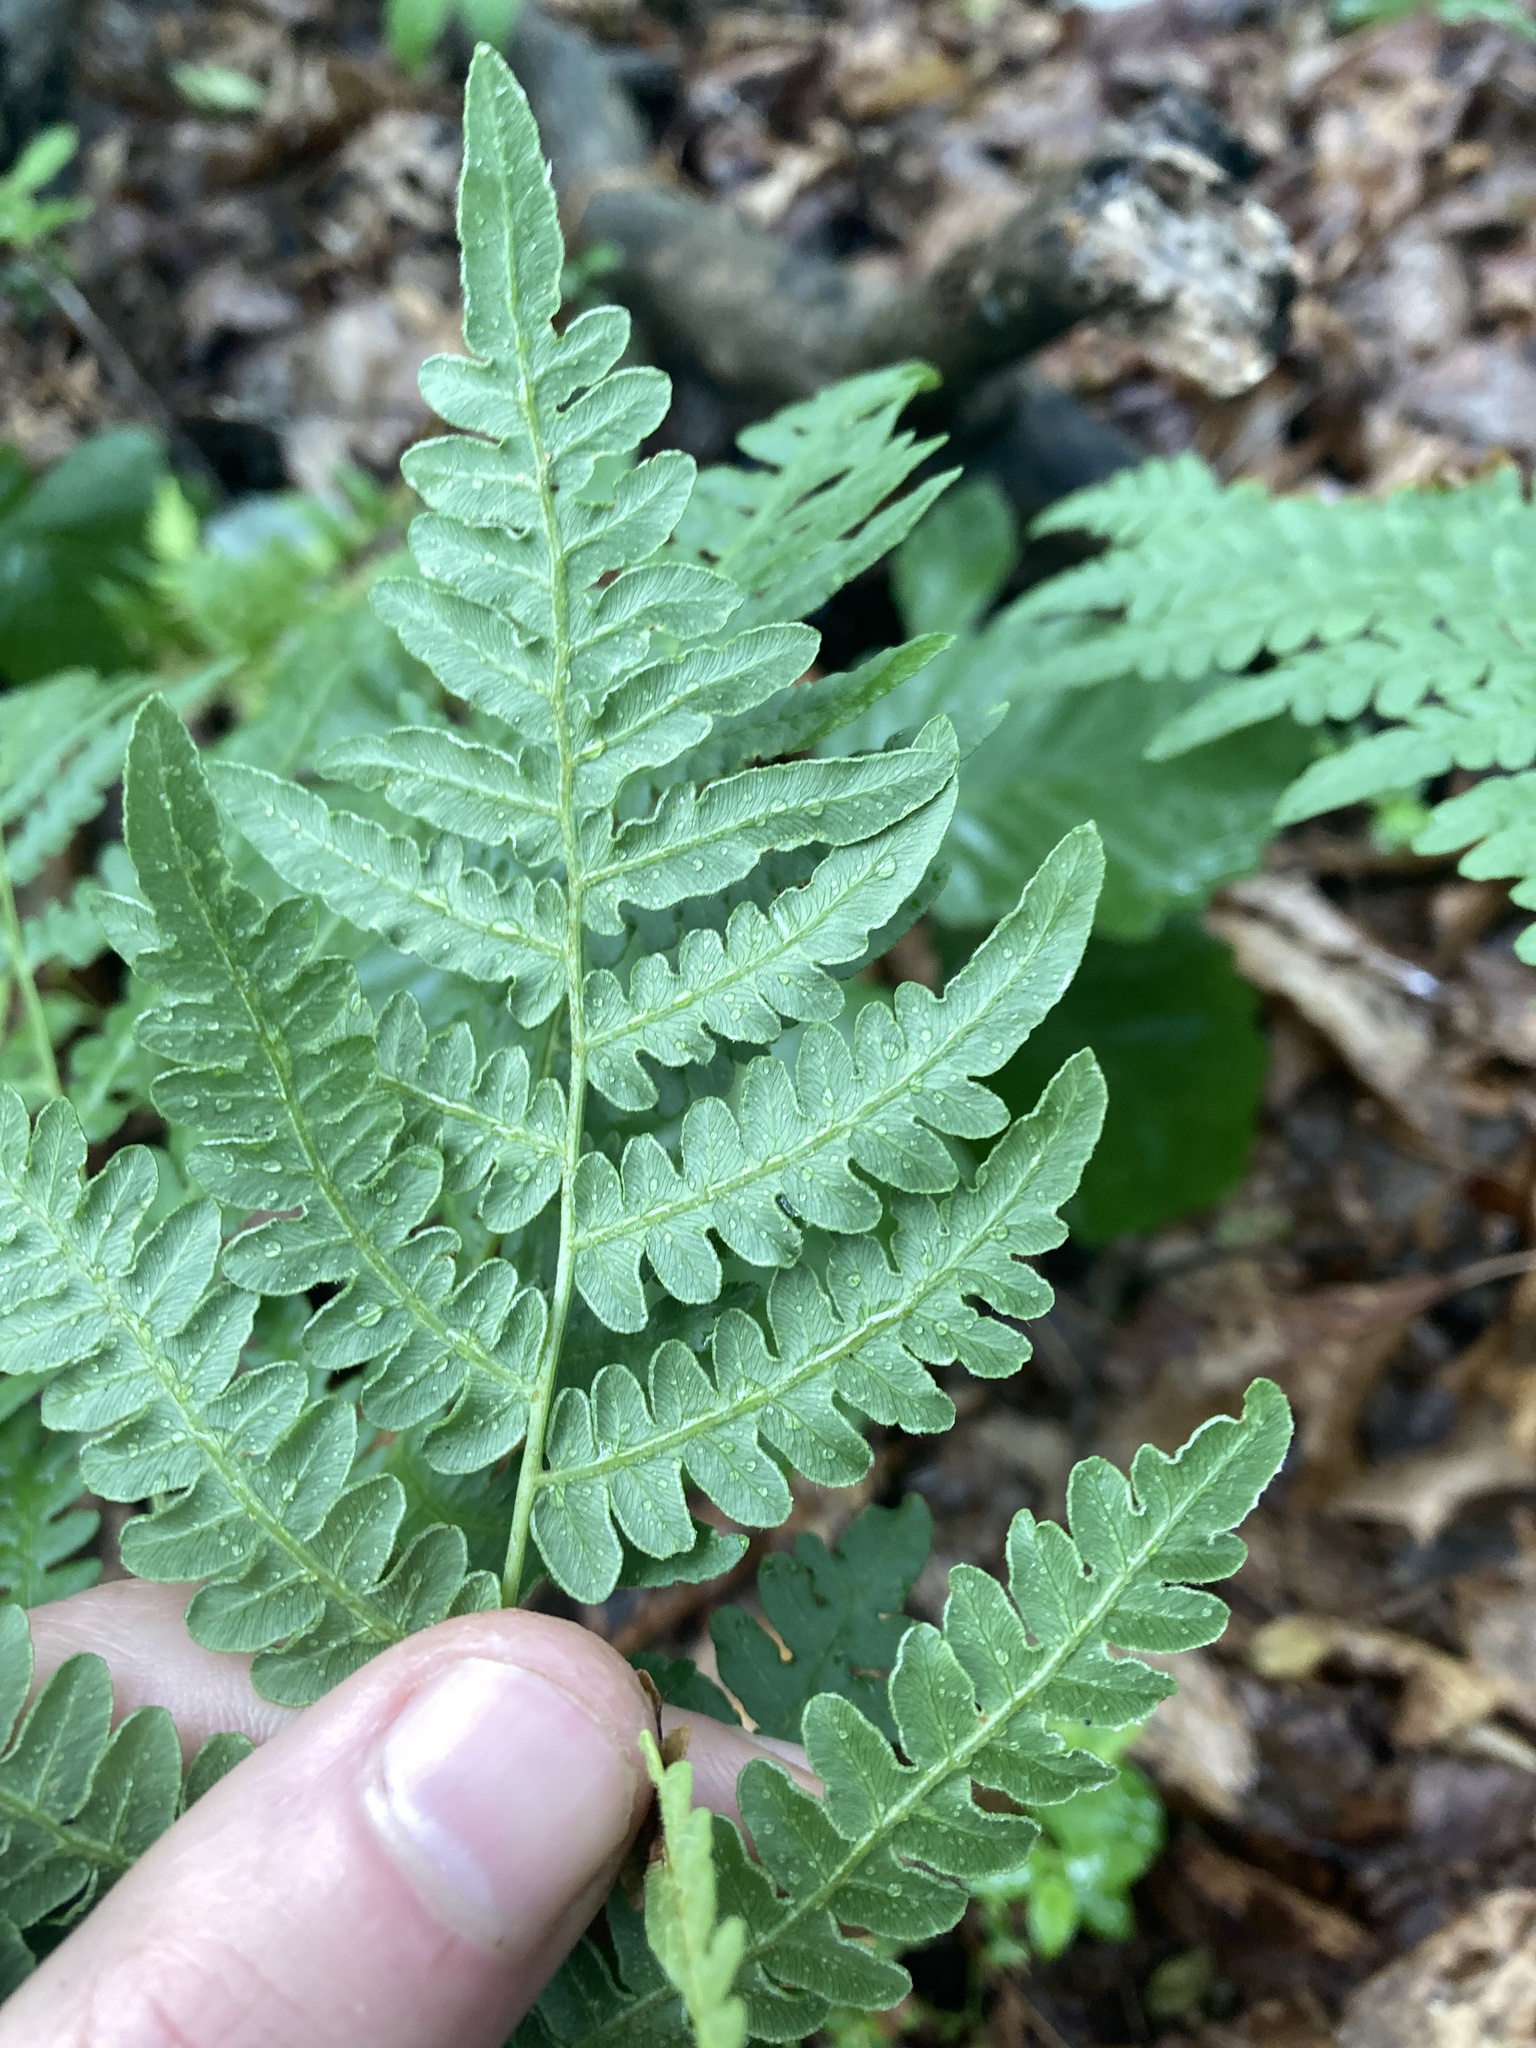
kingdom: Plantae
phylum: Tracheophyta
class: Polypodiopsida
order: Polypodiales
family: Dennstaedtiaceae
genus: Pteridium
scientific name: Pteridium aquilinum
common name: Bracken
